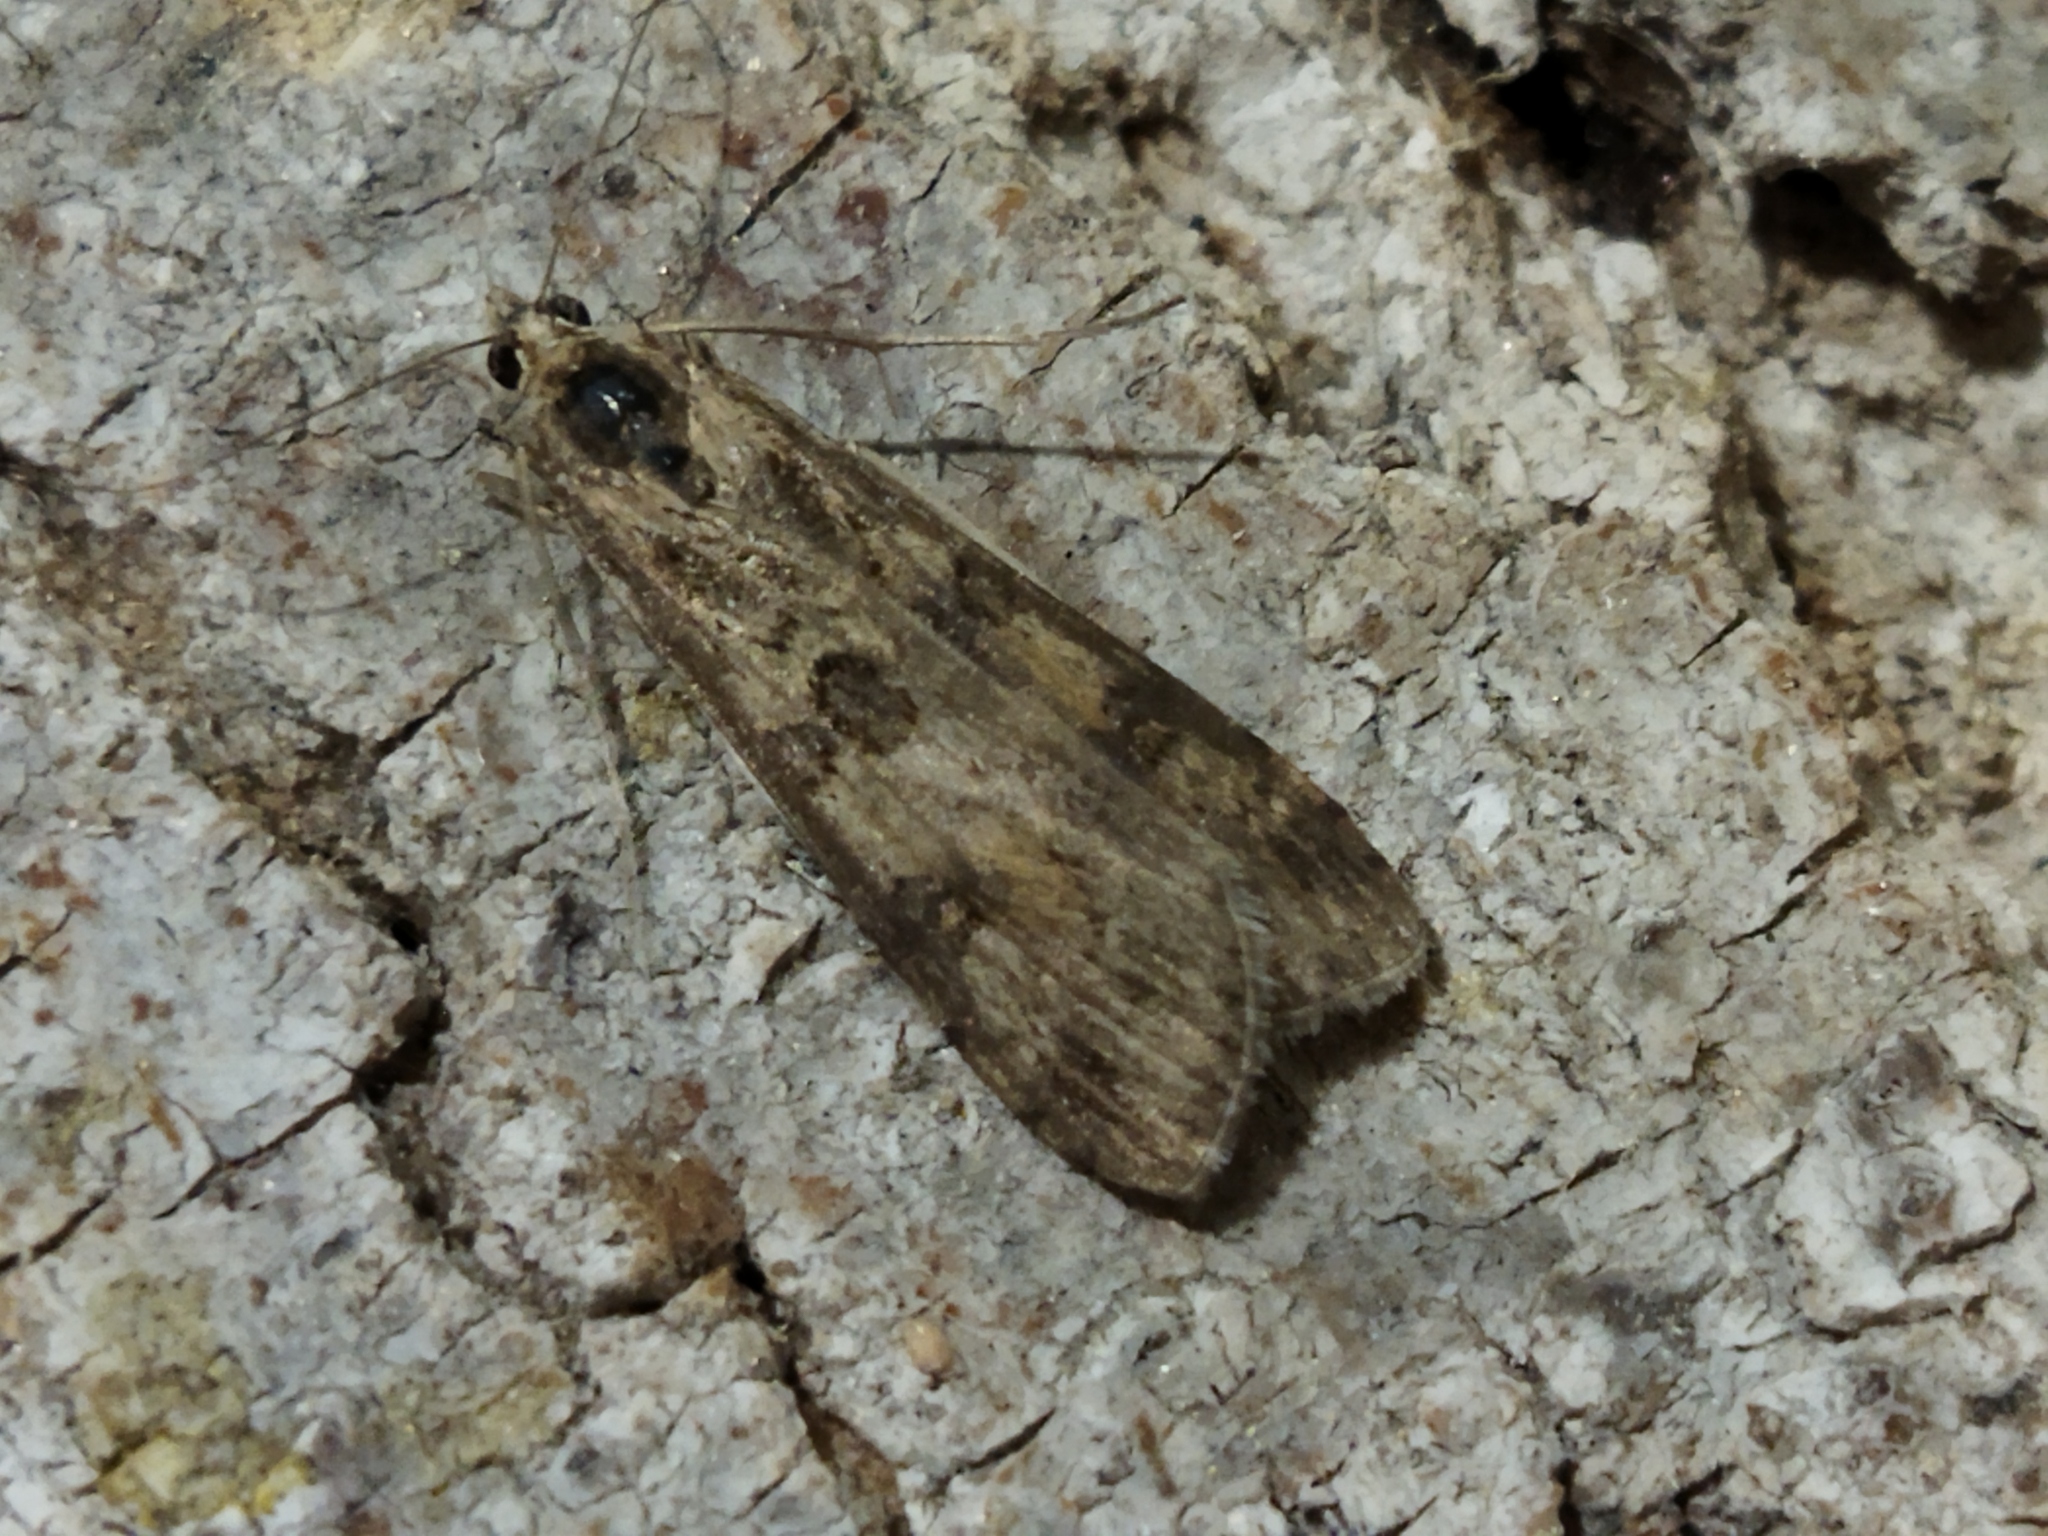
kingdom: Animalia
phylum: Arthropoda
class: Insecta
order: Lepidoptera
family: Crambidae
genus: Nomophila
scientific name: Nomophila noctuella
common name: Rush veneer
